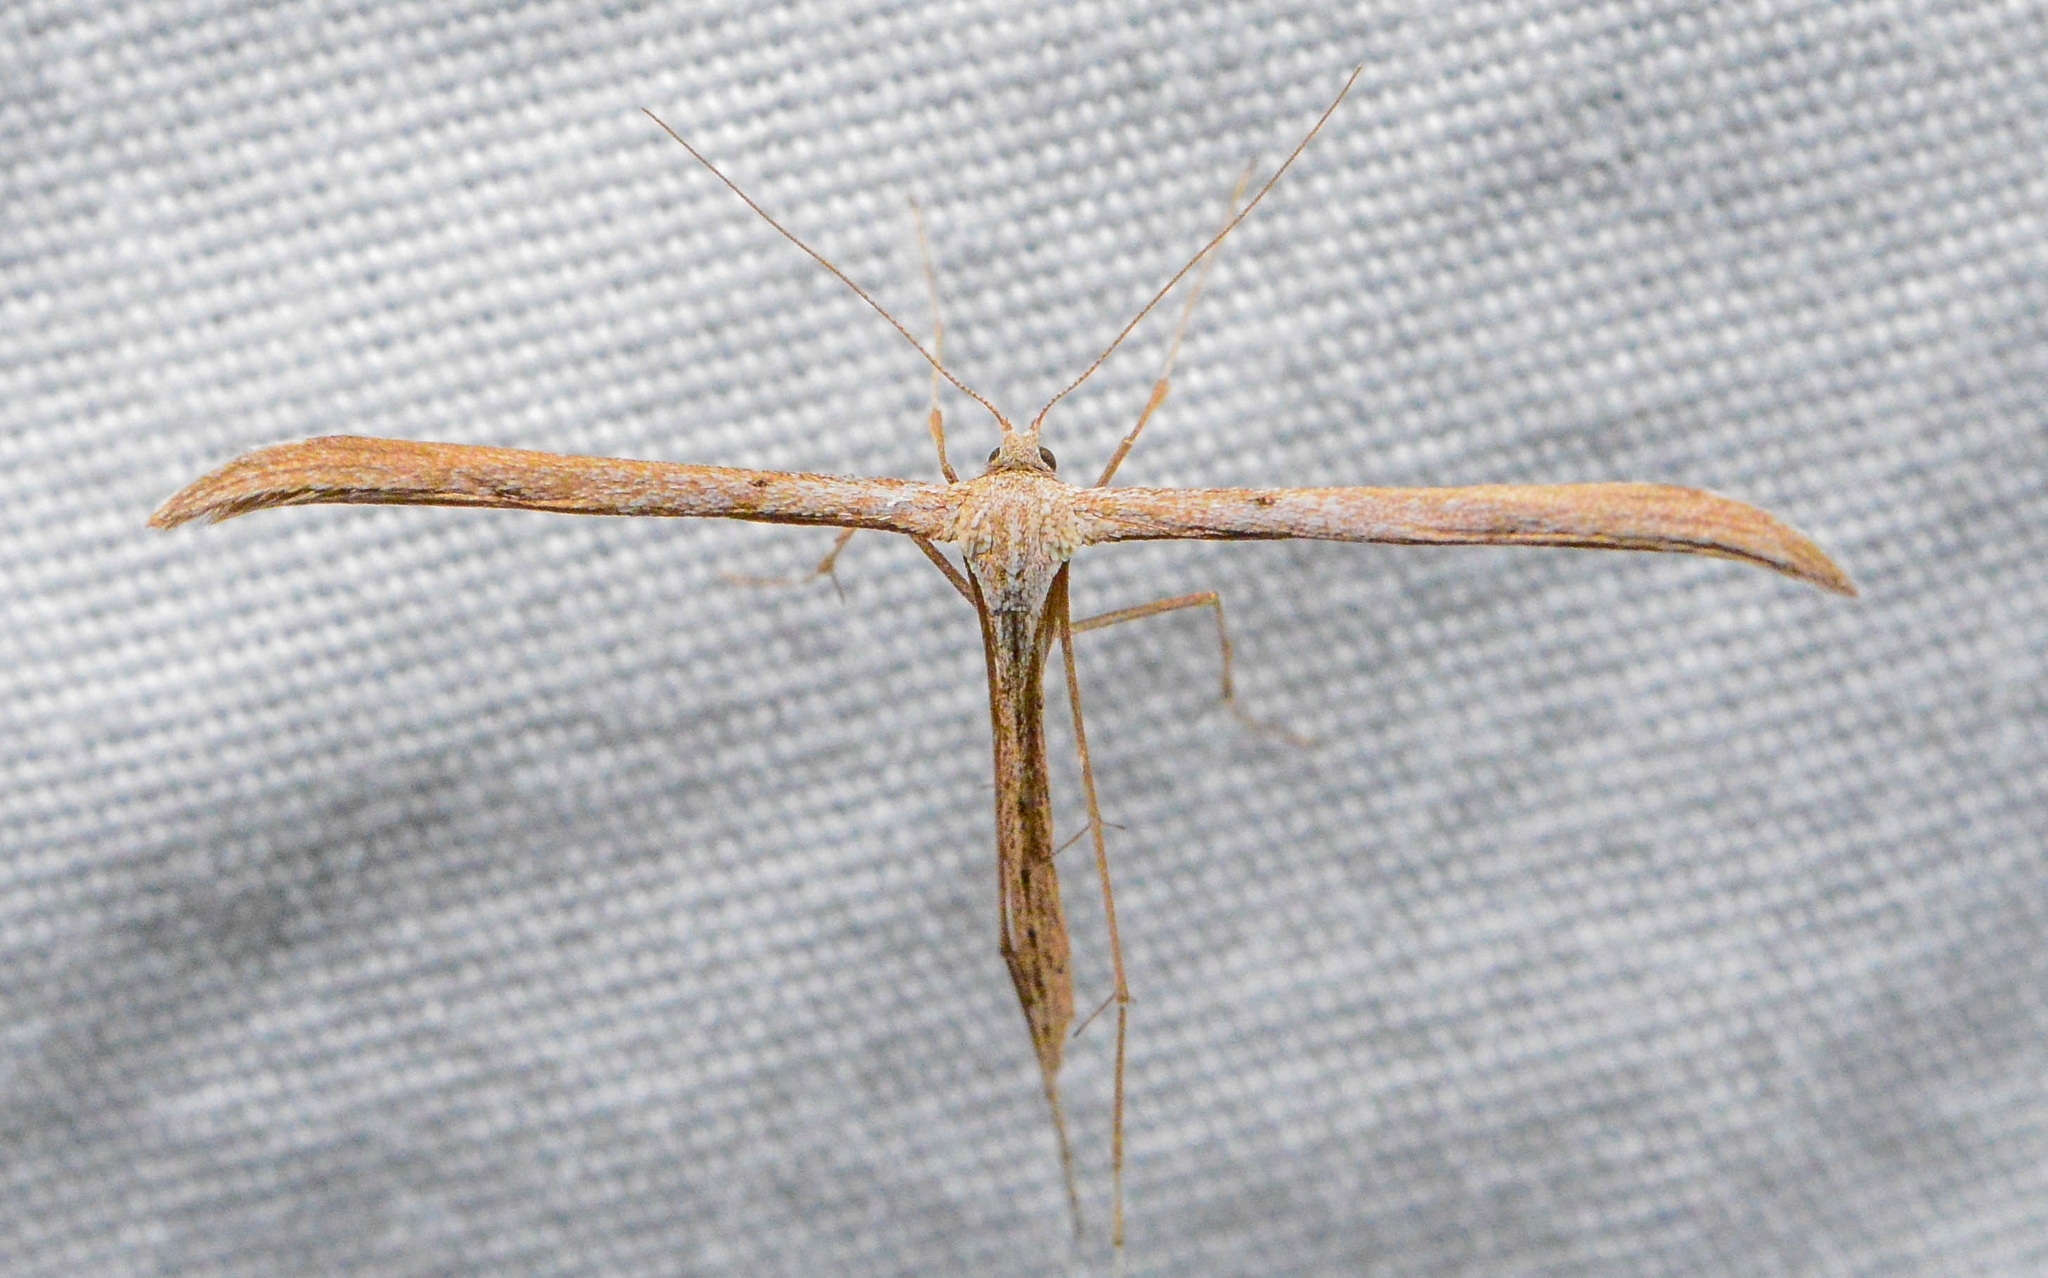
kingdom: Animalia
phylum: Arthropoda
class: Insecta
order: Lepidoptera
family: Pterophoridae
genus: Emmelina
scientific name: Emmelina monodactyla
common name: Common plume
